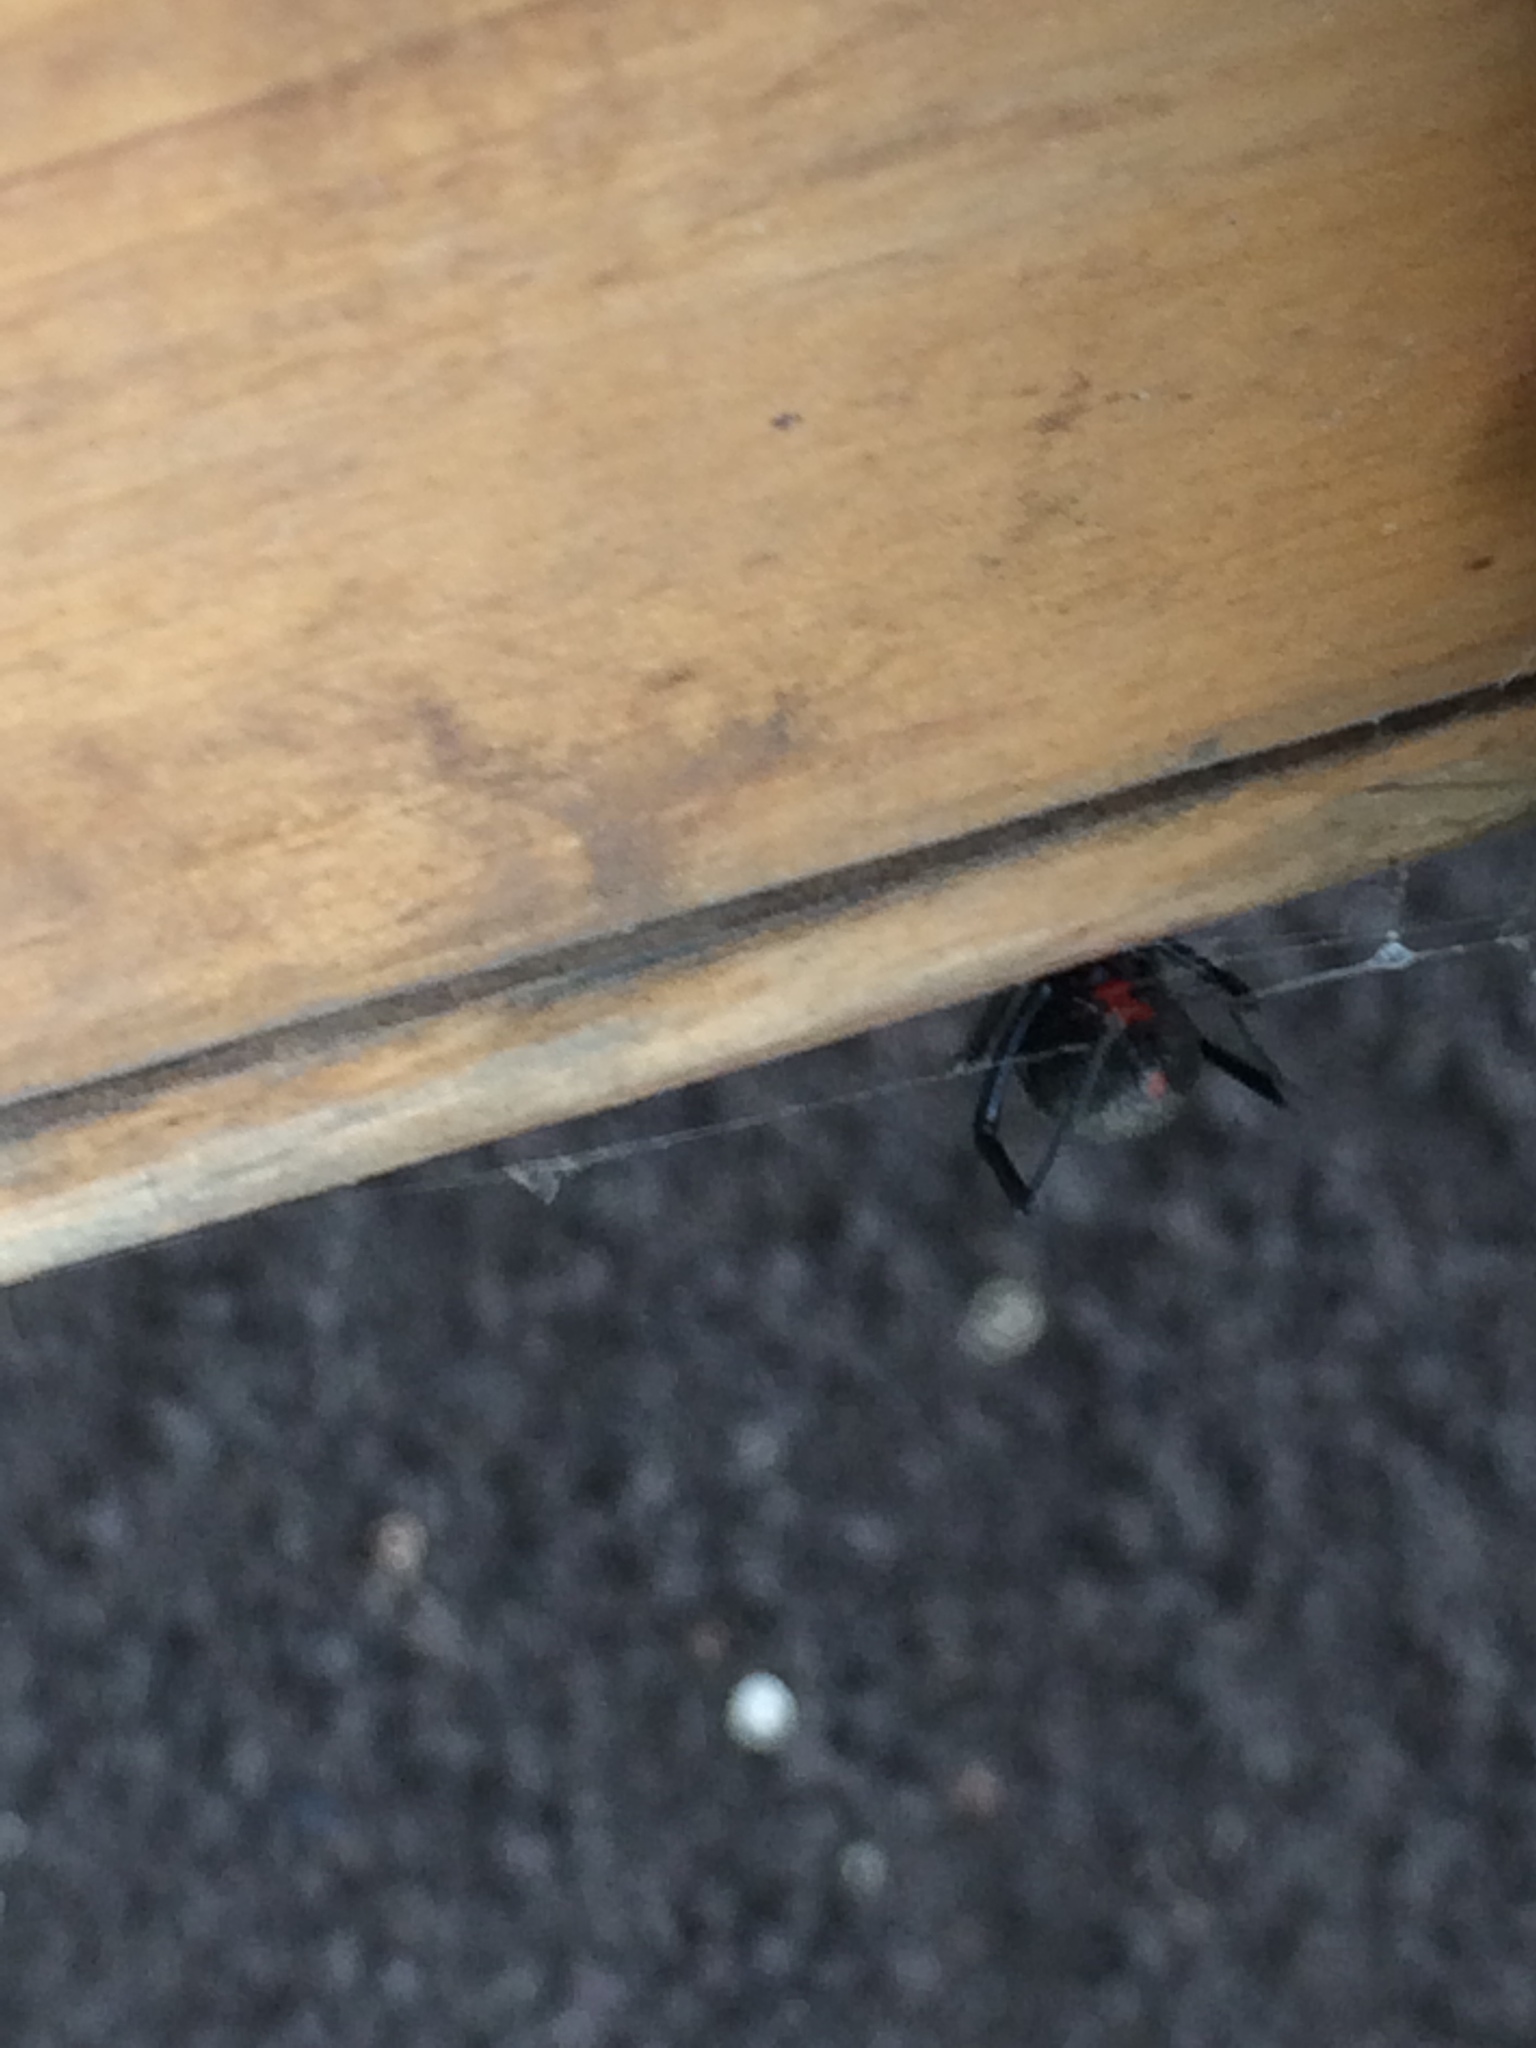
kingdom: Animalia
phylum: Arthropoda
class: Arachnida
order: Araneae
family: Theridiidae
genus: Latrodectus
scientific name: Latrodectus mactans
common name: Cobweb spiders
